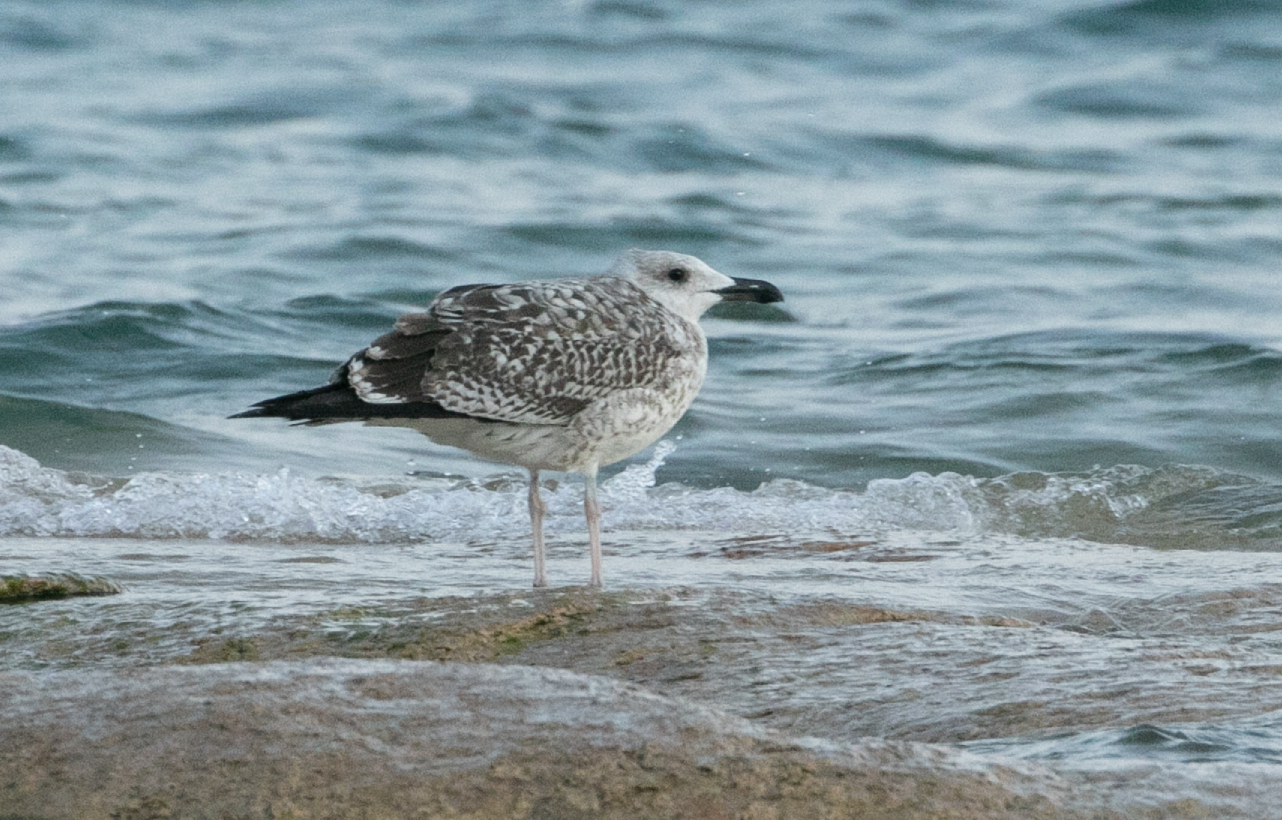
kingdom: Animalia
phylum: Chordata
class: Aves
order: Charadriiformes
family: Laridae
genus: Larus
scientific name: Larus michahellis
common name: Yellow-legged gull
